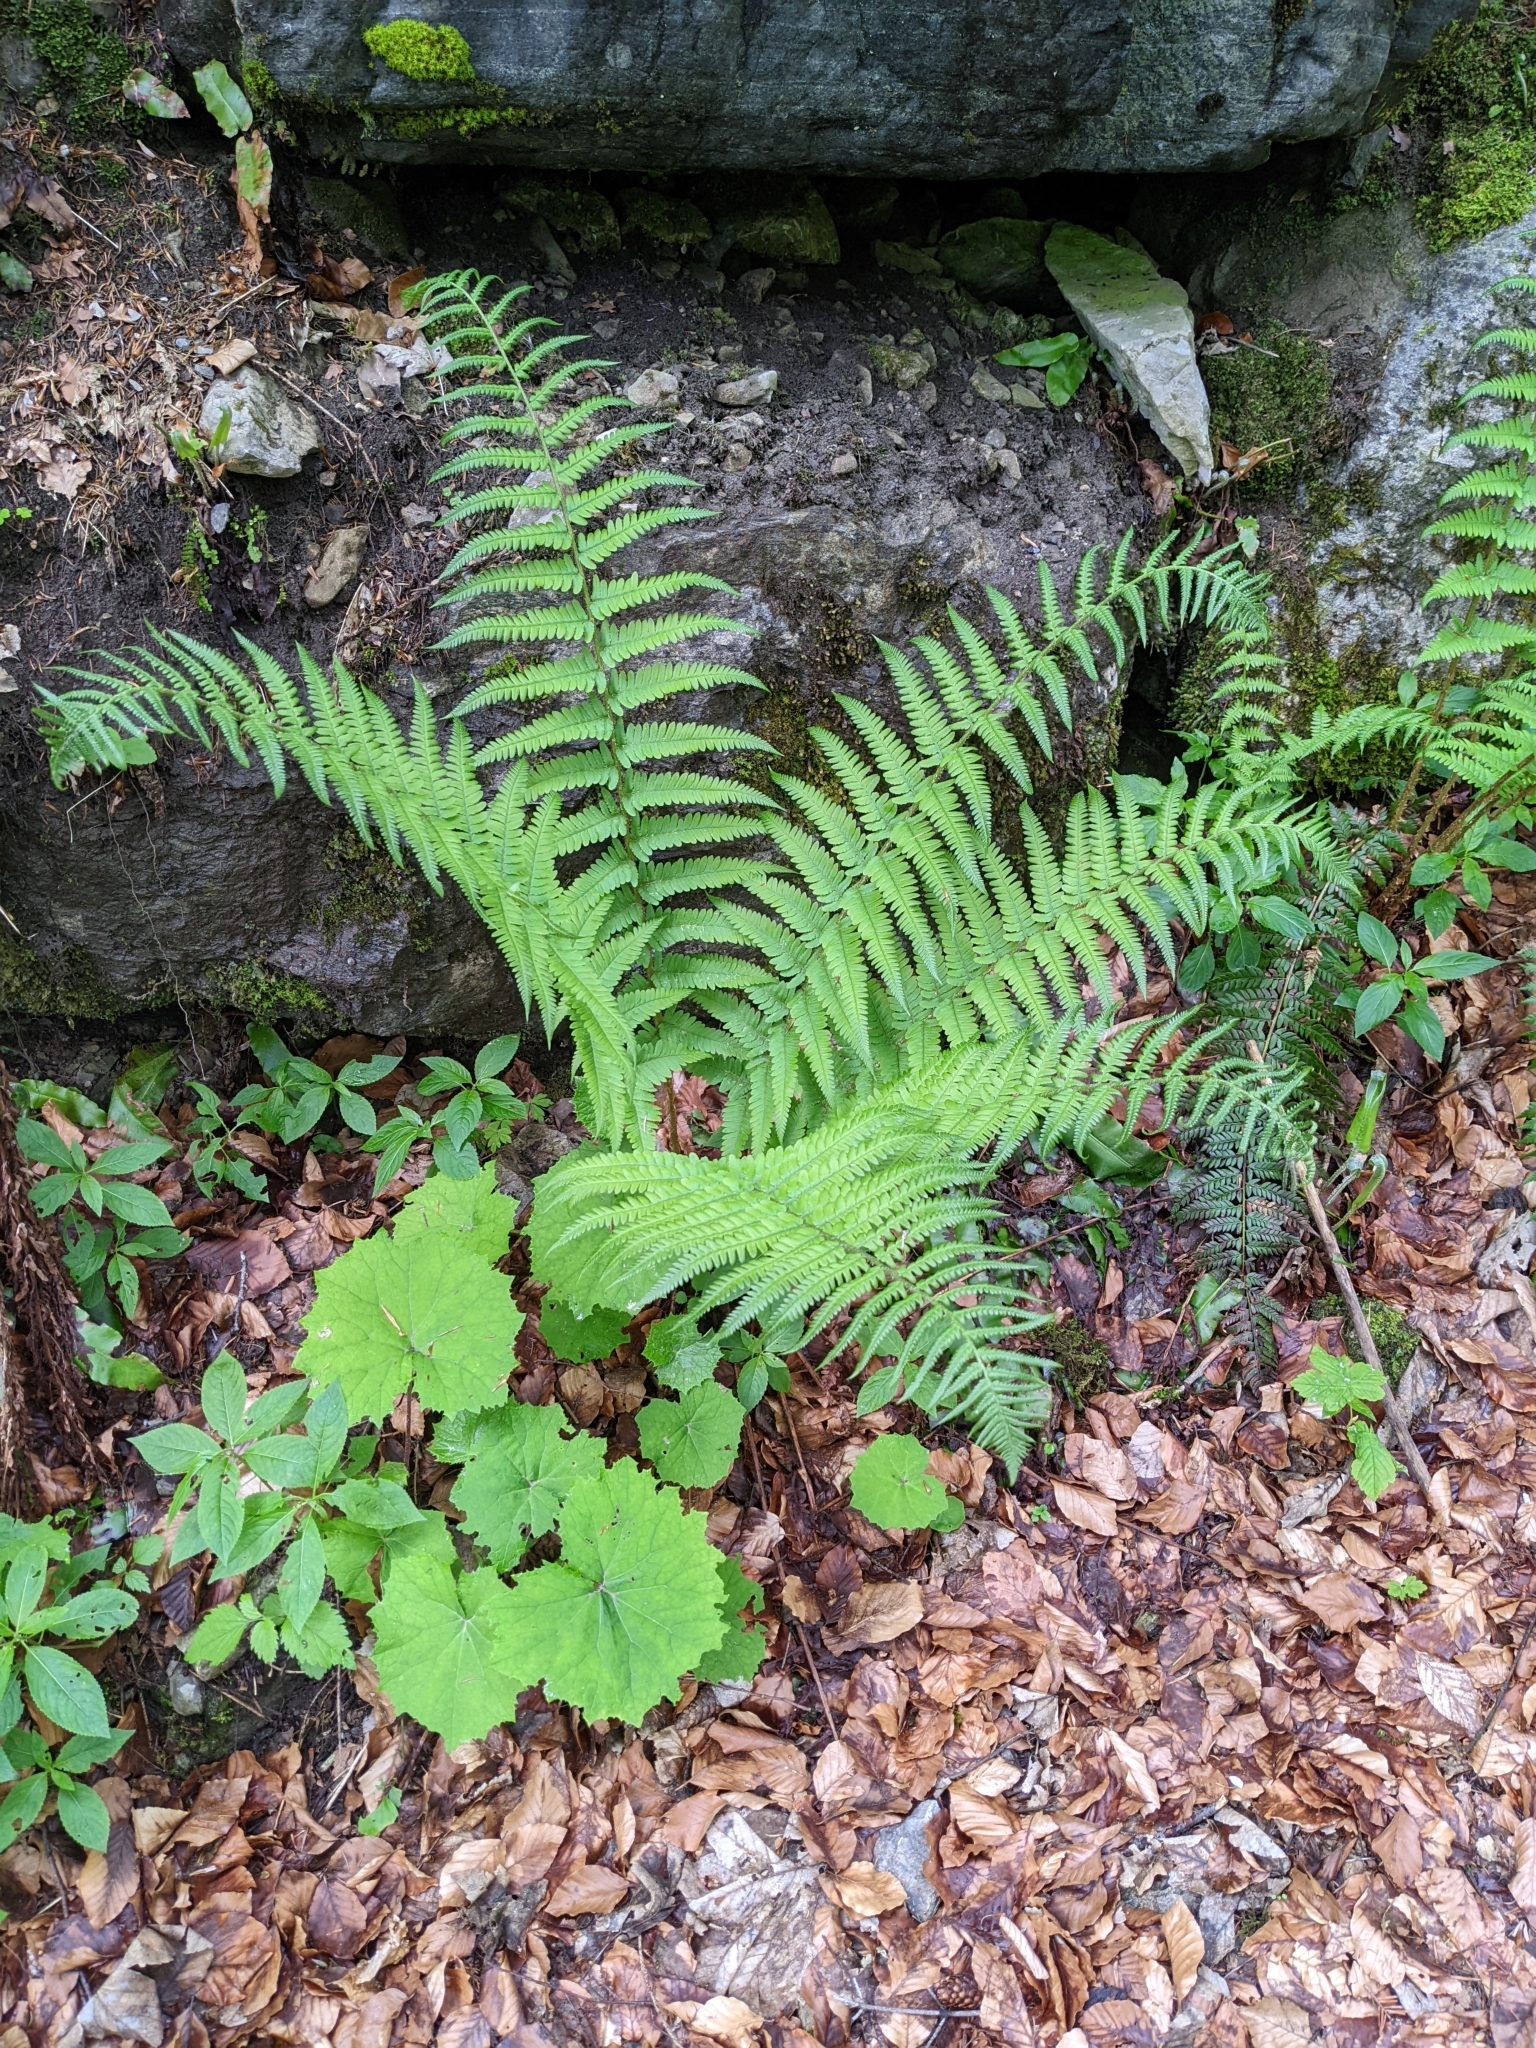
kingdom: Plantae
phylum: Tracheophyta
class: Polypodiopsida
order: Polypodiales
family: Dryopteridaceae
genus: Dryopteris
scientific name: Dryopteris filix-mas
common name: Male fern
